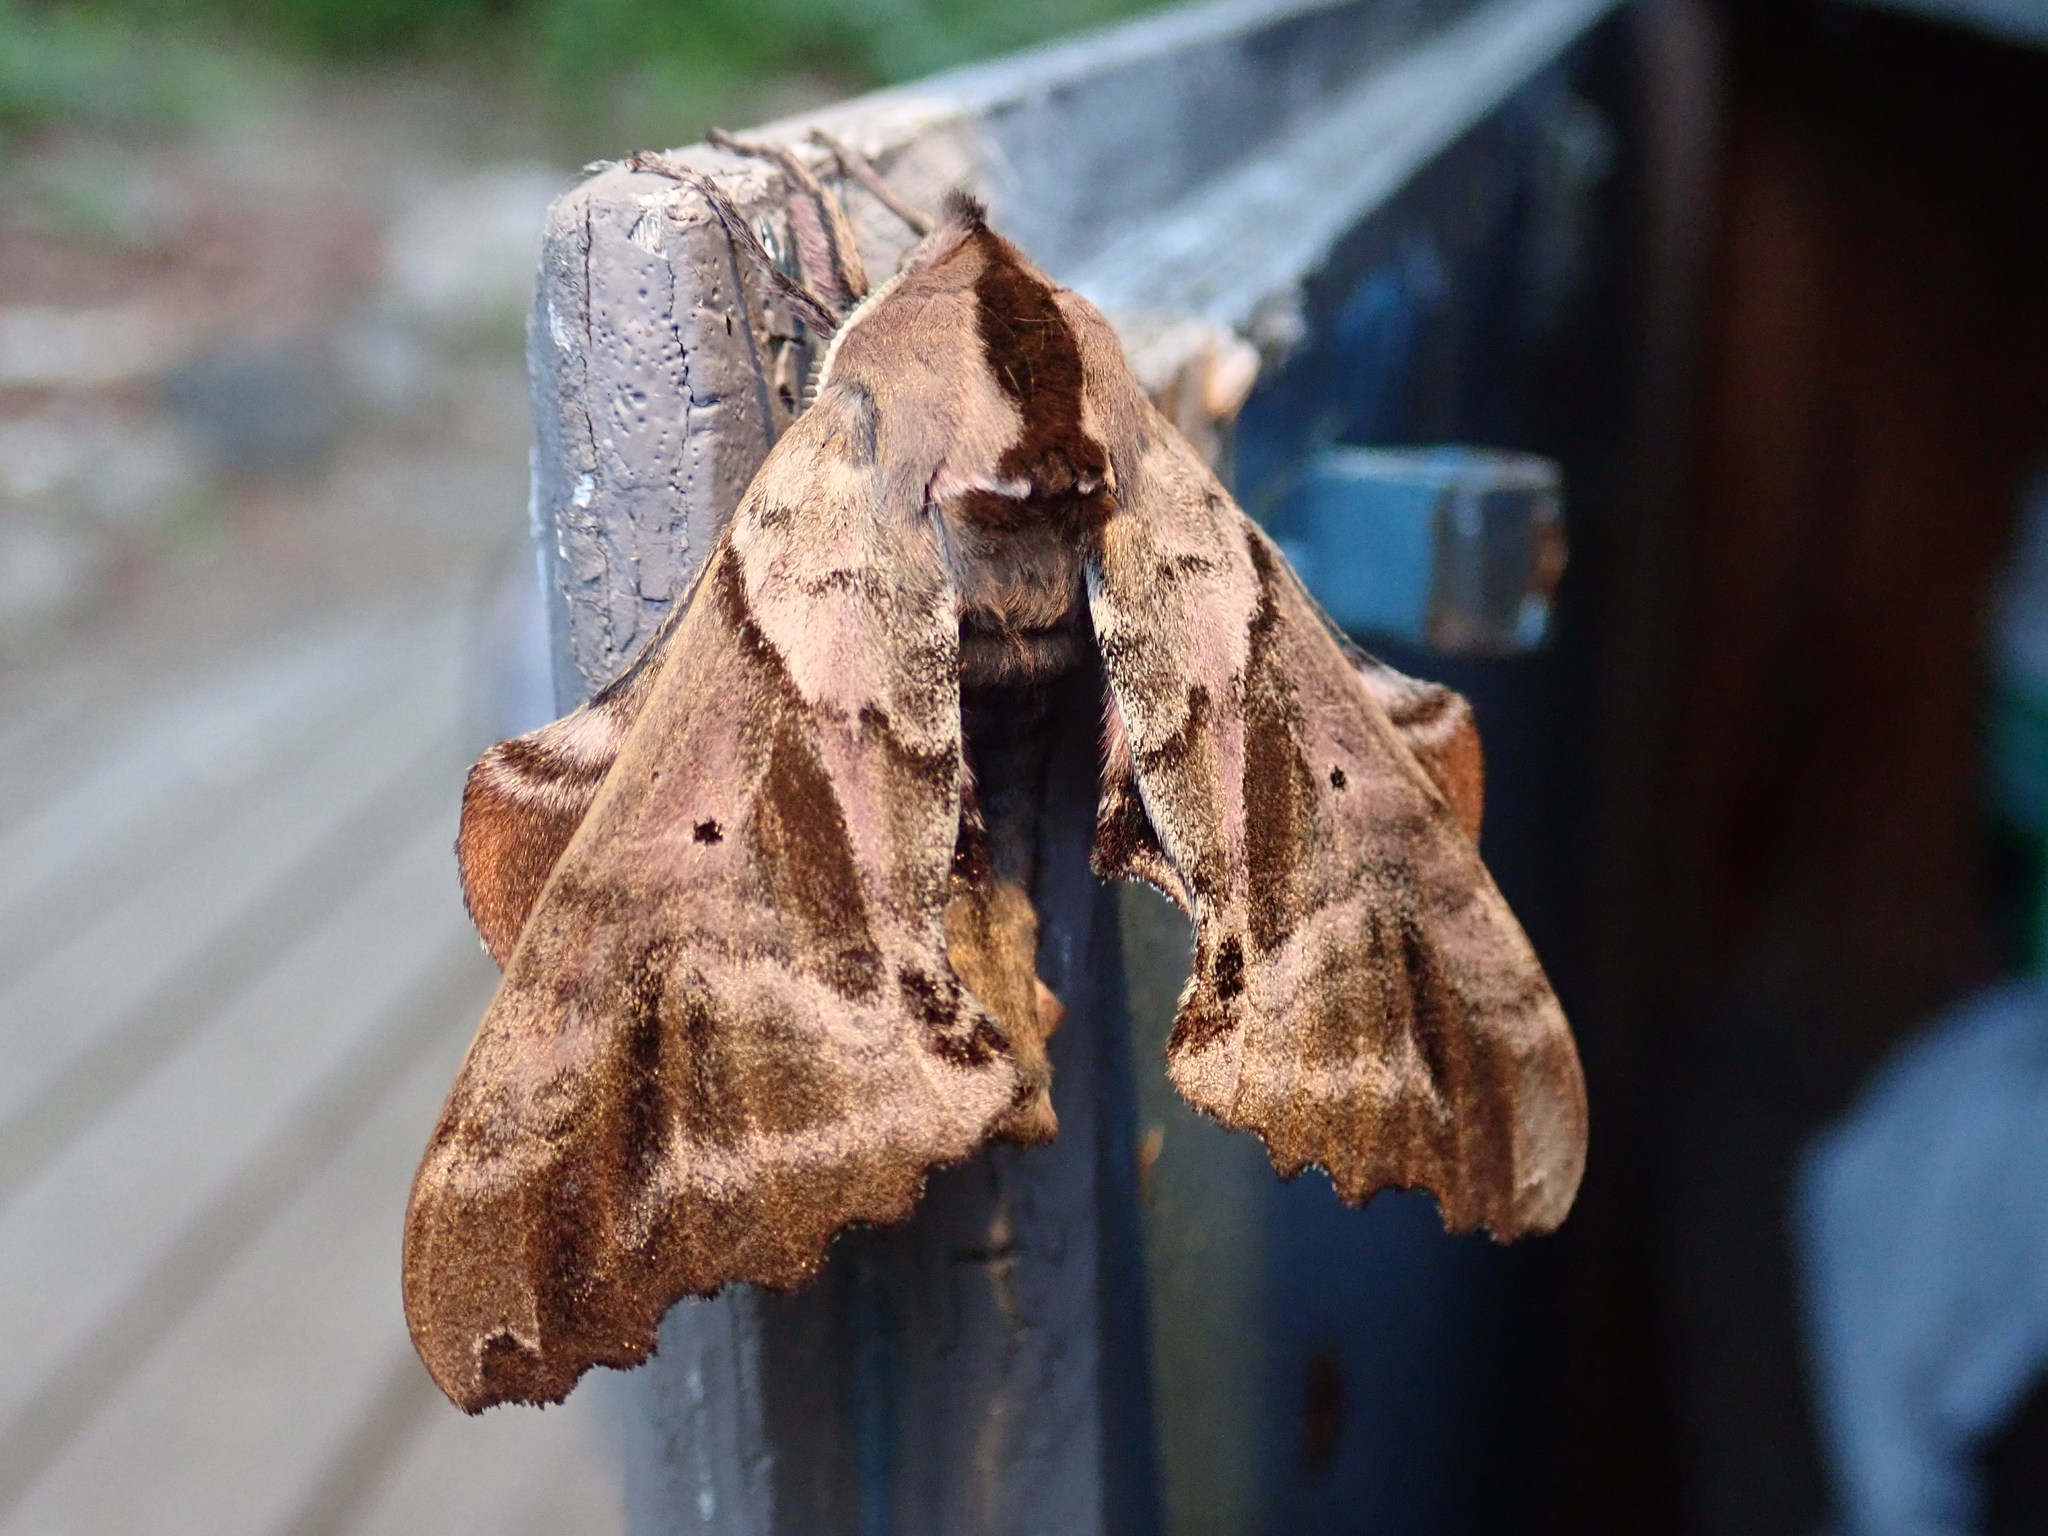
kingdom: Animalia
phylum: Arthropoda
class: Insecta
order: Lepidoptera
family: Sphingidae
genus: Paonias
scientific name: Paonias excaecata
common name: Blind-eyed sphinx
